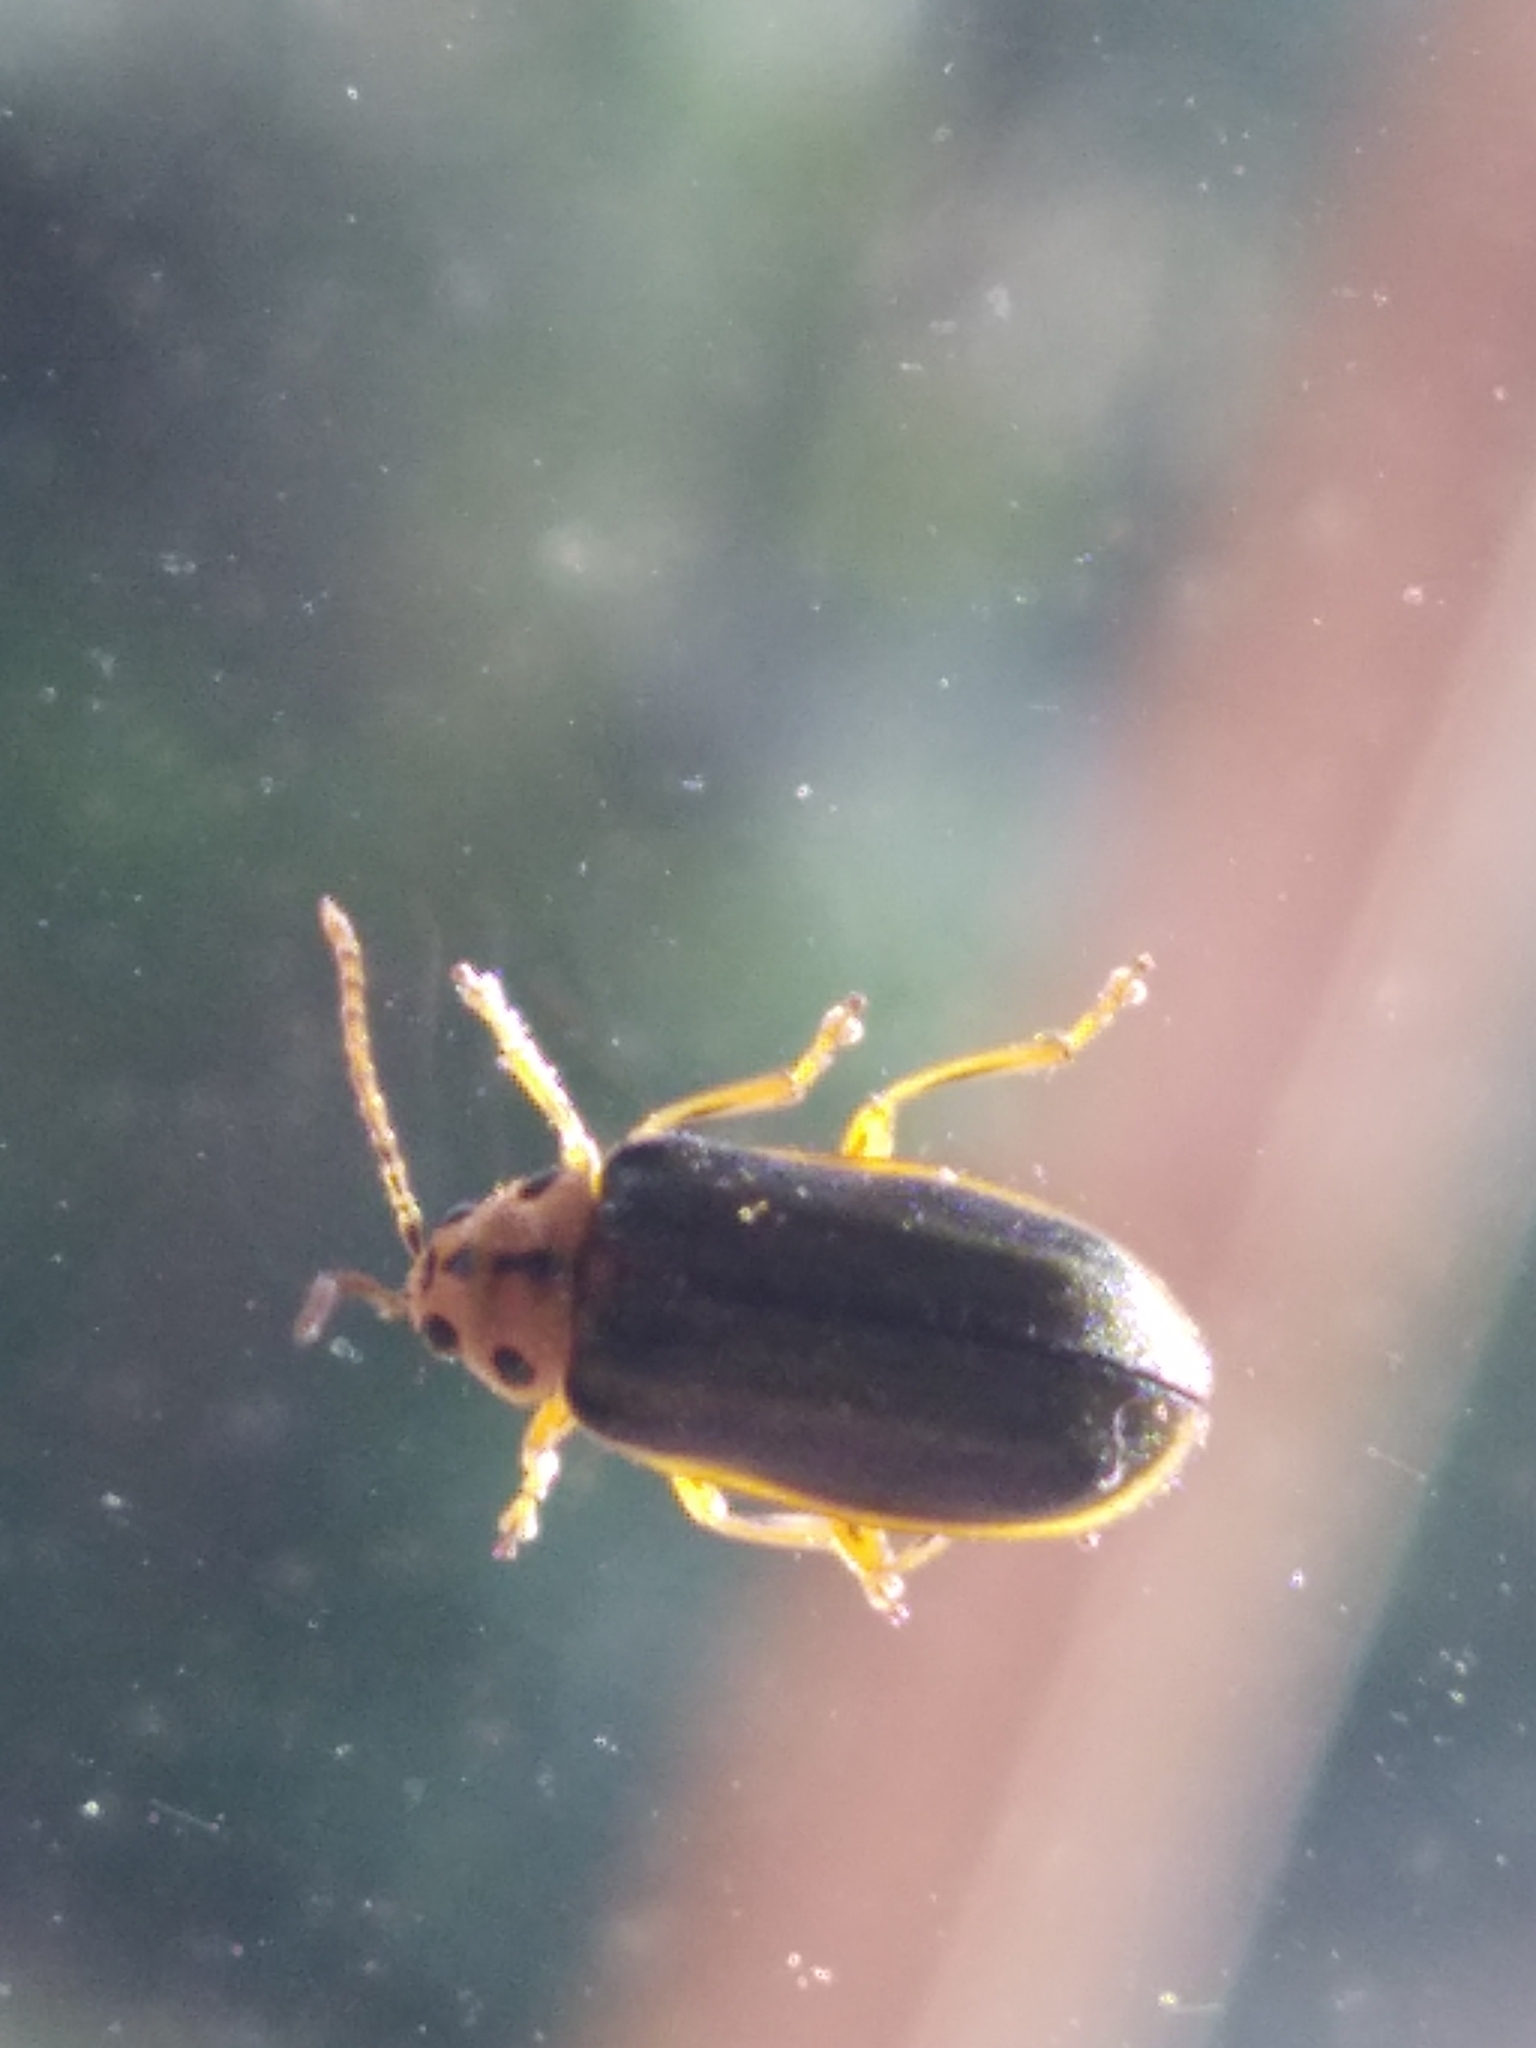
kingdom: Animalia
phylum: Arthropoda
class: Insecta
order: Coleoptera
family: Chrysomelidae
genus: Xanthogaleruca
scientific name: Xanthogaleruca luteola
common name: Elm leaf beetle
